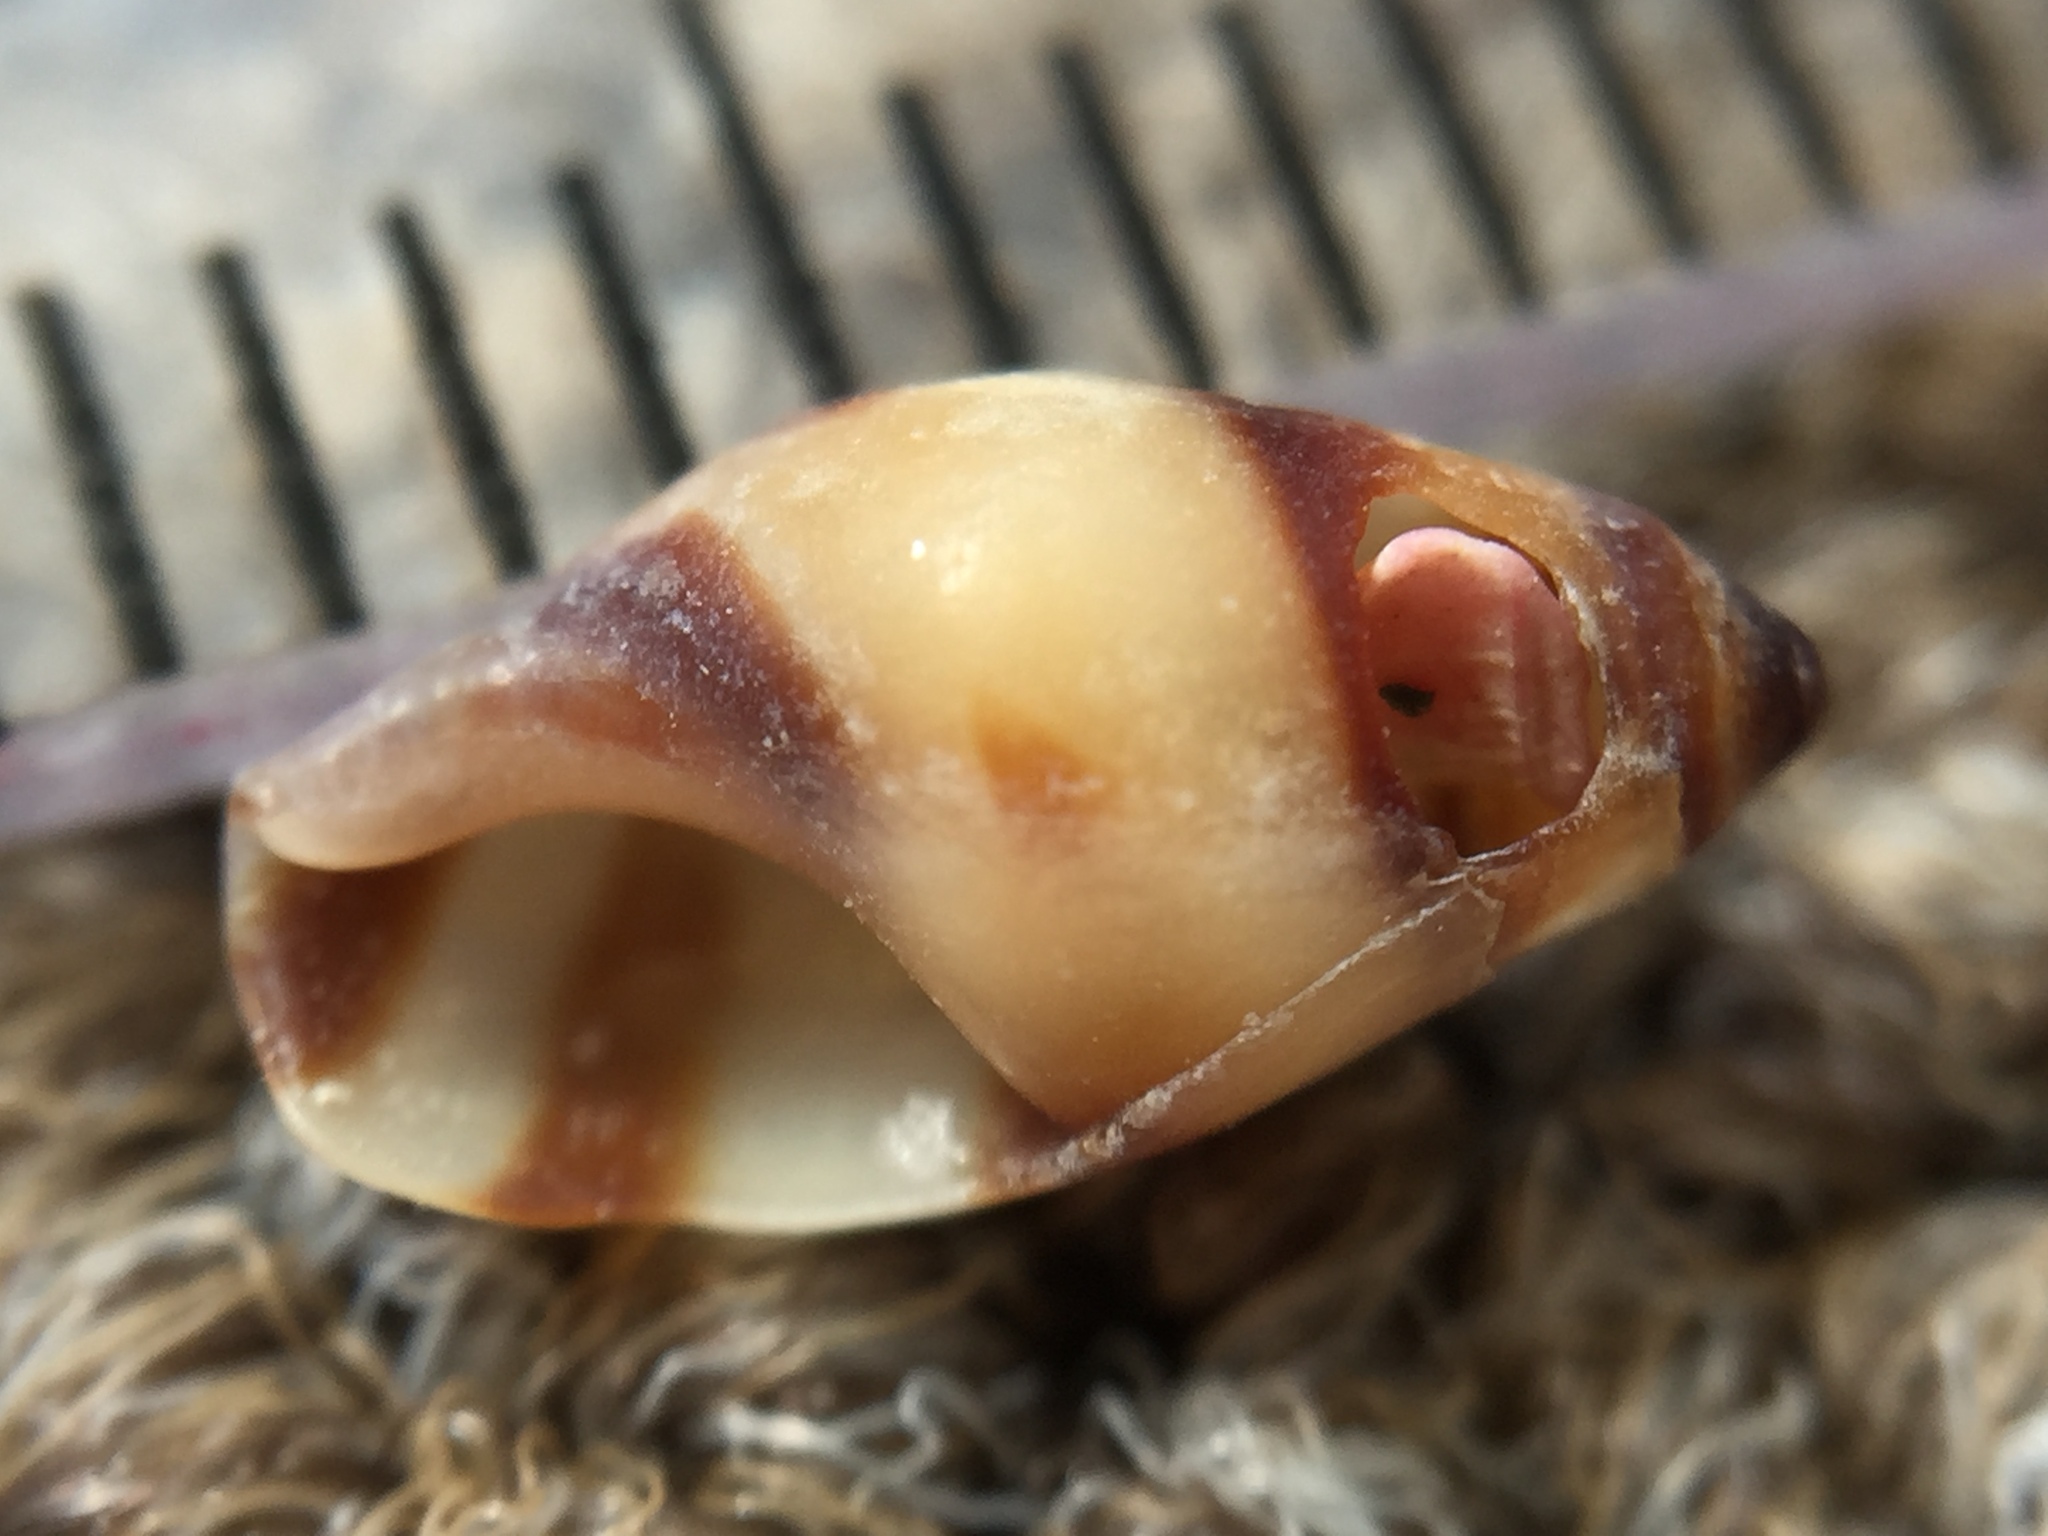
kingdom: Animalia
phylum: Mollusca
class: Gastropoda
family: Zemelanopsidae
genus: Zemelanopsis
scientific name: Zemelanopsis trifasciata
